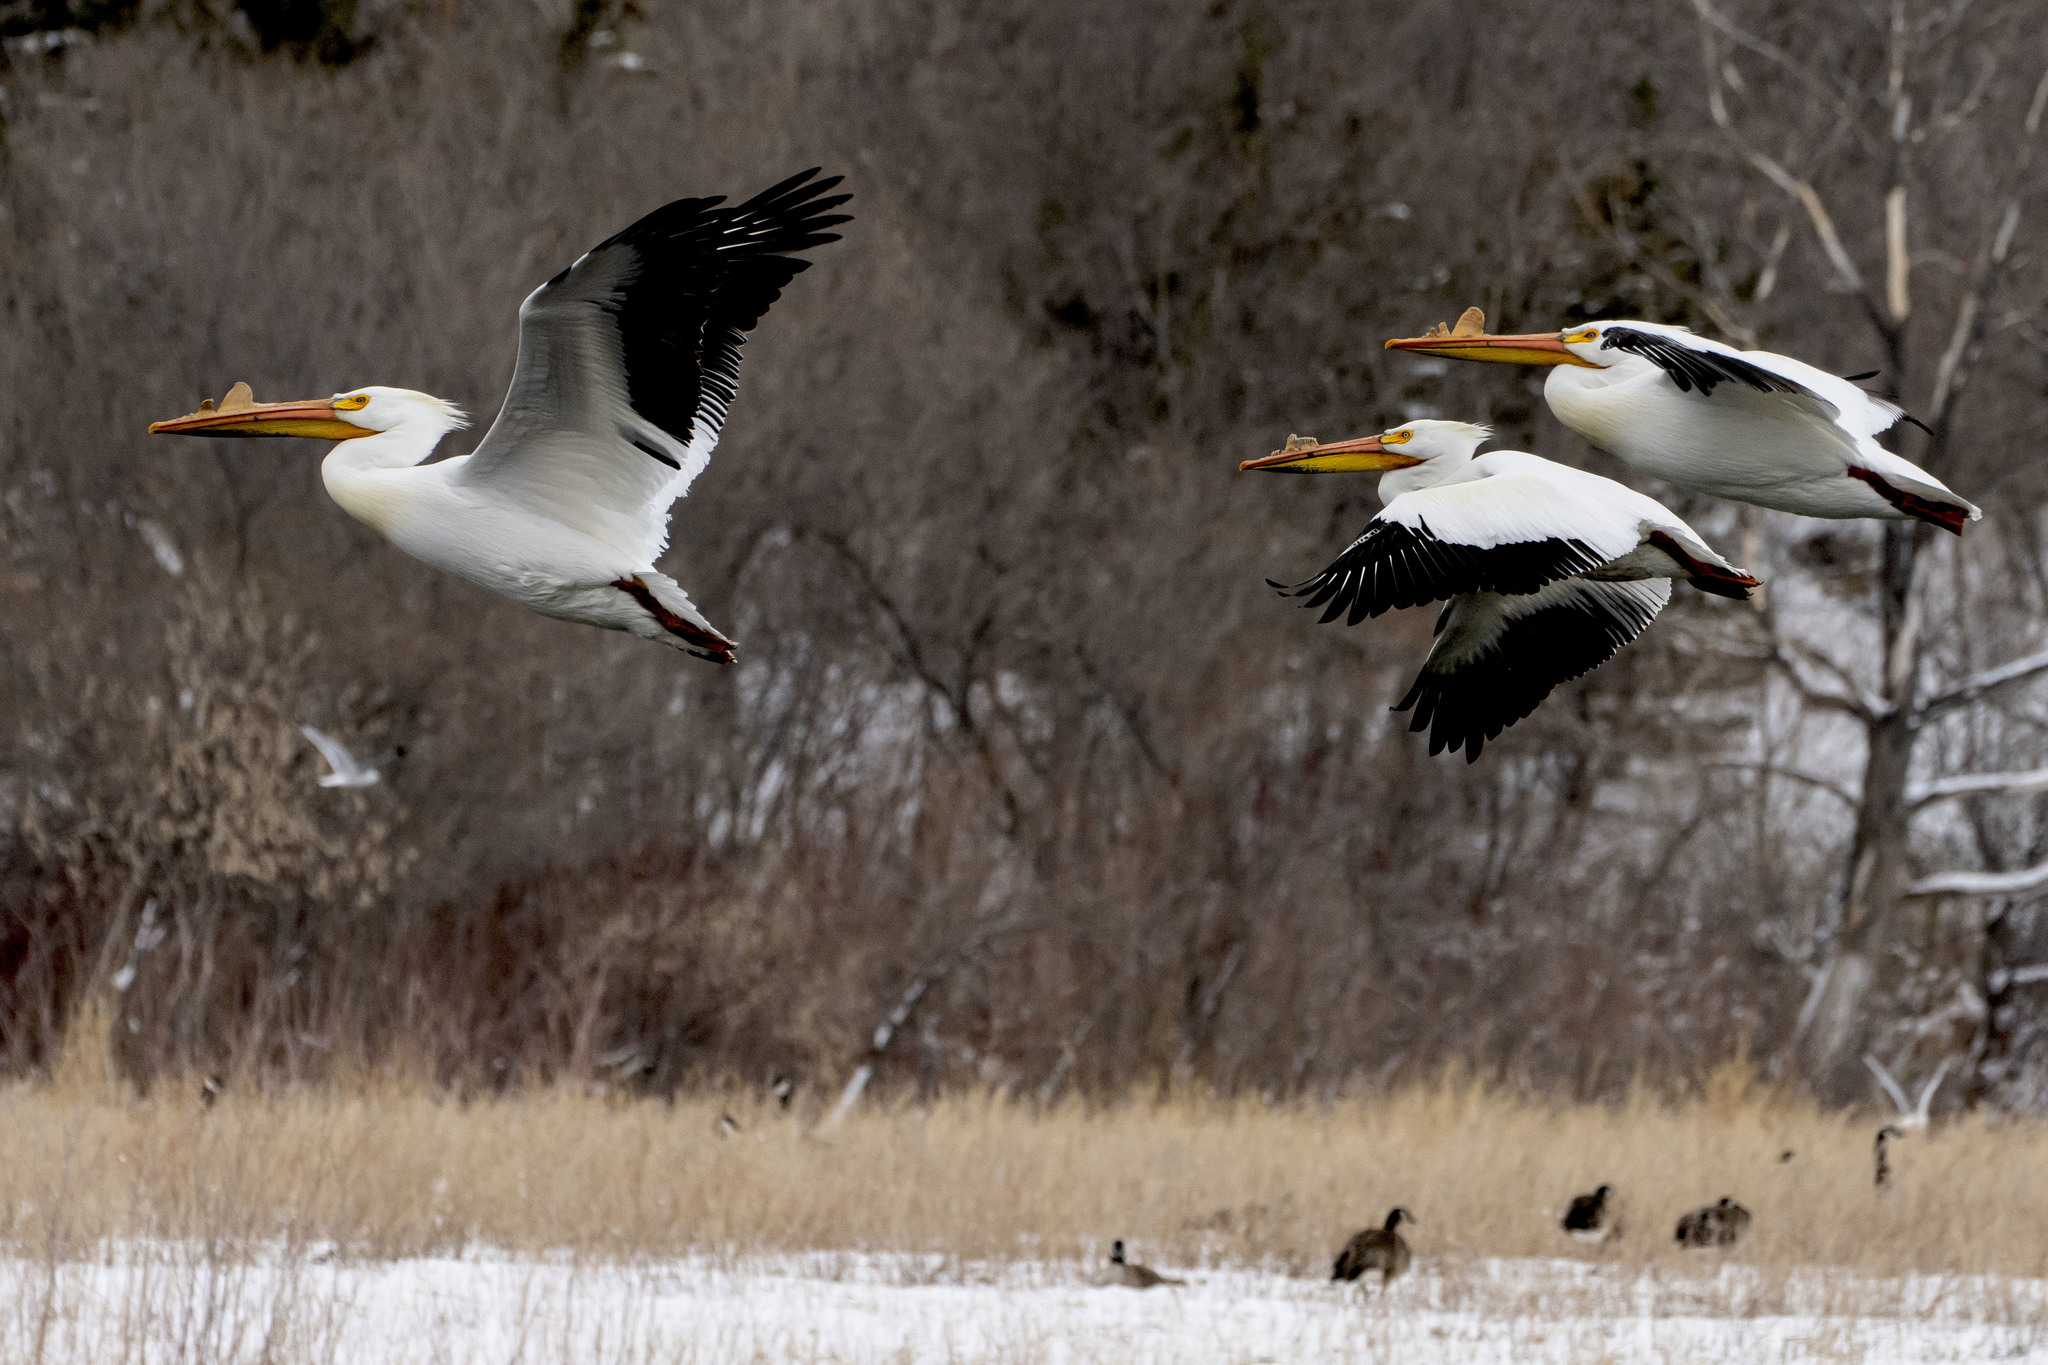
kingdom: Animalia
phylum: Chordata
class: Aves
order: Pelecaniformes
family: Pelecanidae
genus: Pelecanus
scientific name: Pelecanus erythrorhynchos
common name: American white pelican
